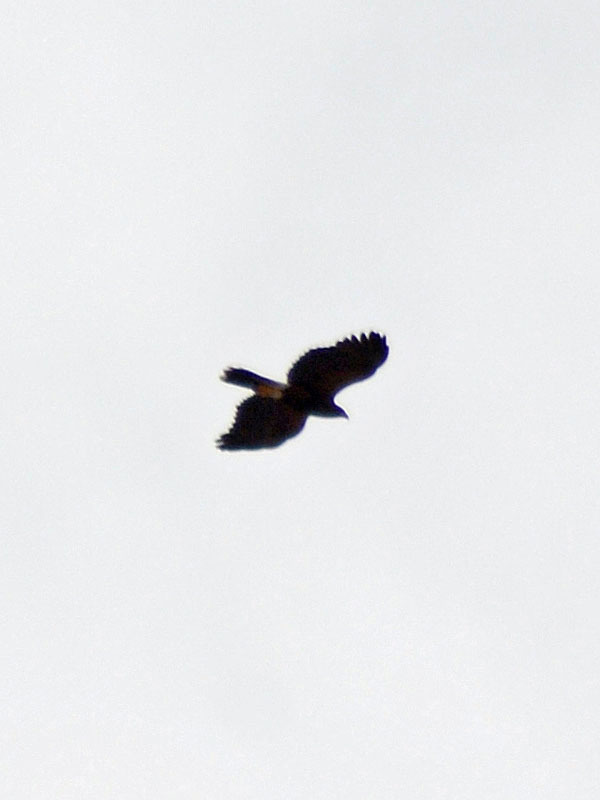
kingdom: Animalia
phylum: Chordata
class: Aves
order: Accipitriformes
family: Accipitridae
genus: Parabuteo
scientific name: Parabuteo unicinctus
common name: Harris's hawk
